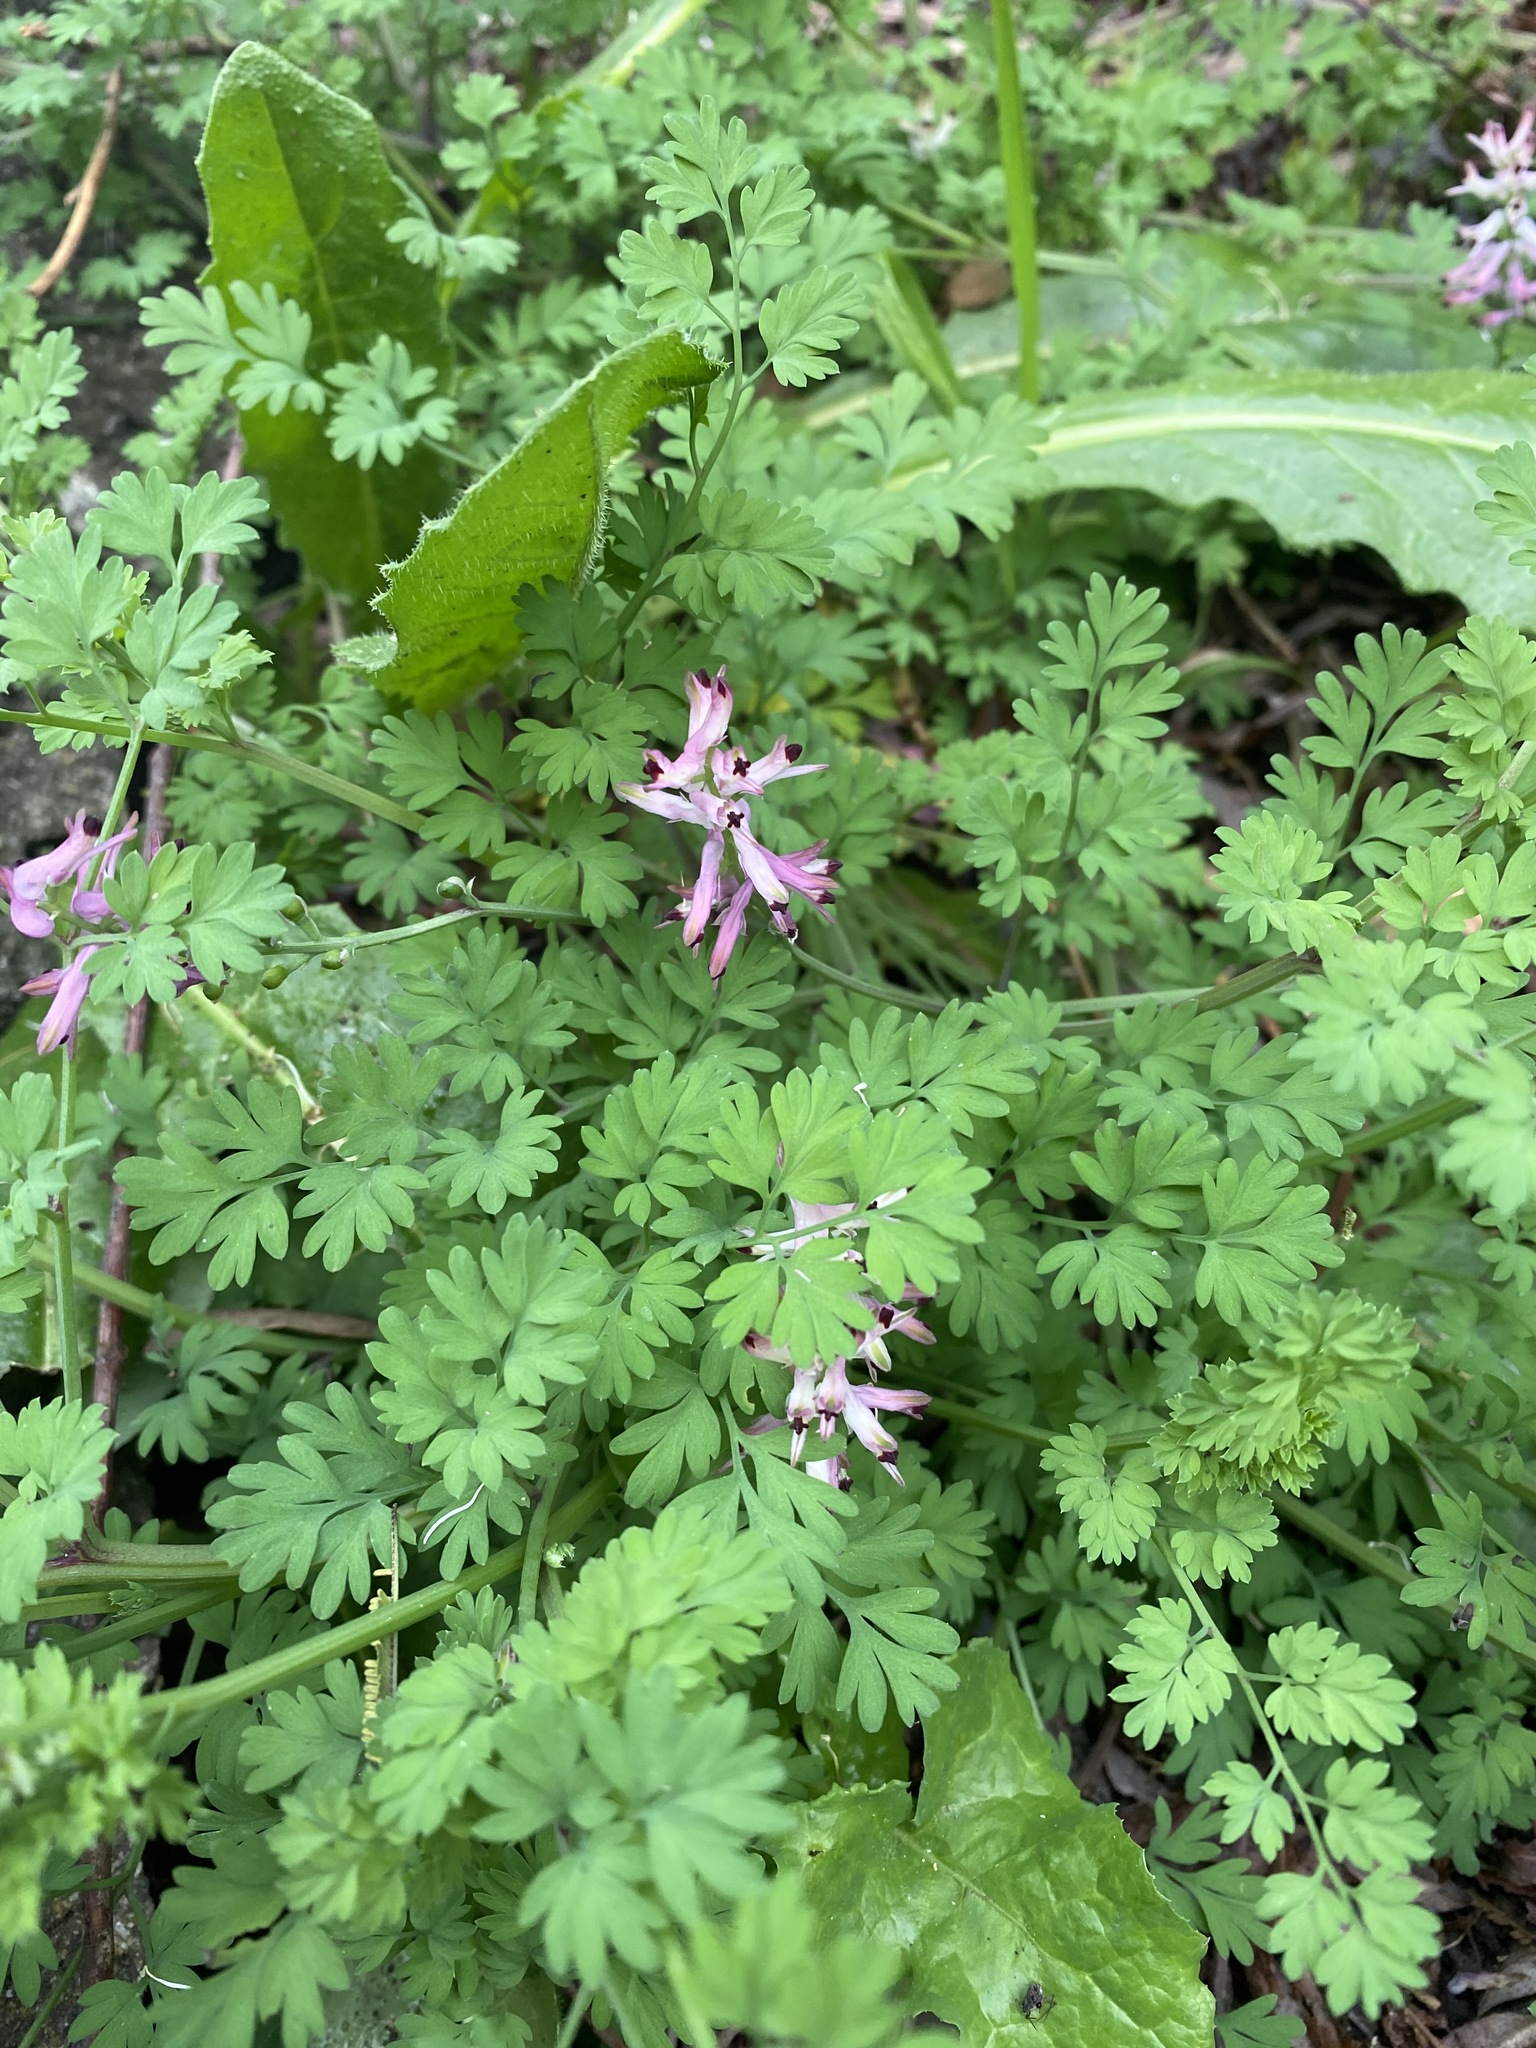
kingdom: Plantae
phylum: Tracheophyta
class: Magnoliopsida
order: Ranunculales
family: Papaveraceae
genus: Fumaria
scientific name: Fumaria muralis
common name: Common ramping-fumitory
